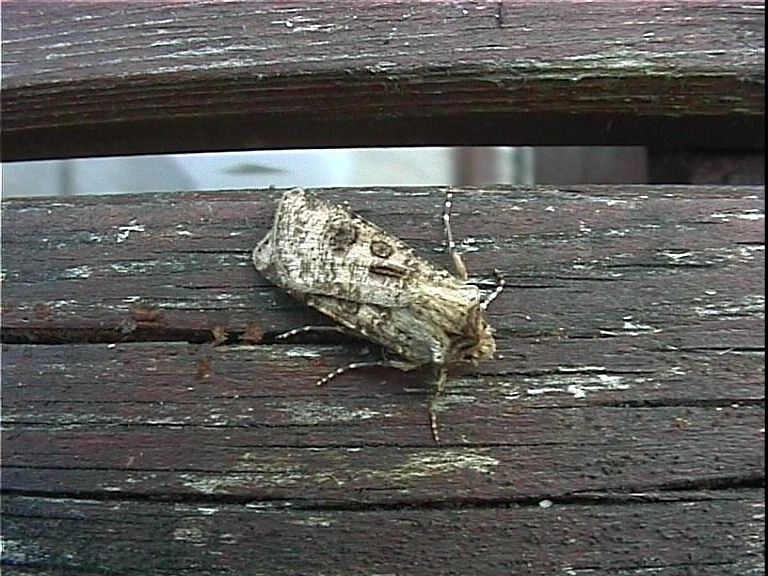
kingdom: Animalia
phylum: Arthropoda
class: Insecta
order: Lepidoptera
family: Noctuidae
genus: Agrotis
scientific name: Agrotis clavis
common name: Heart and club
